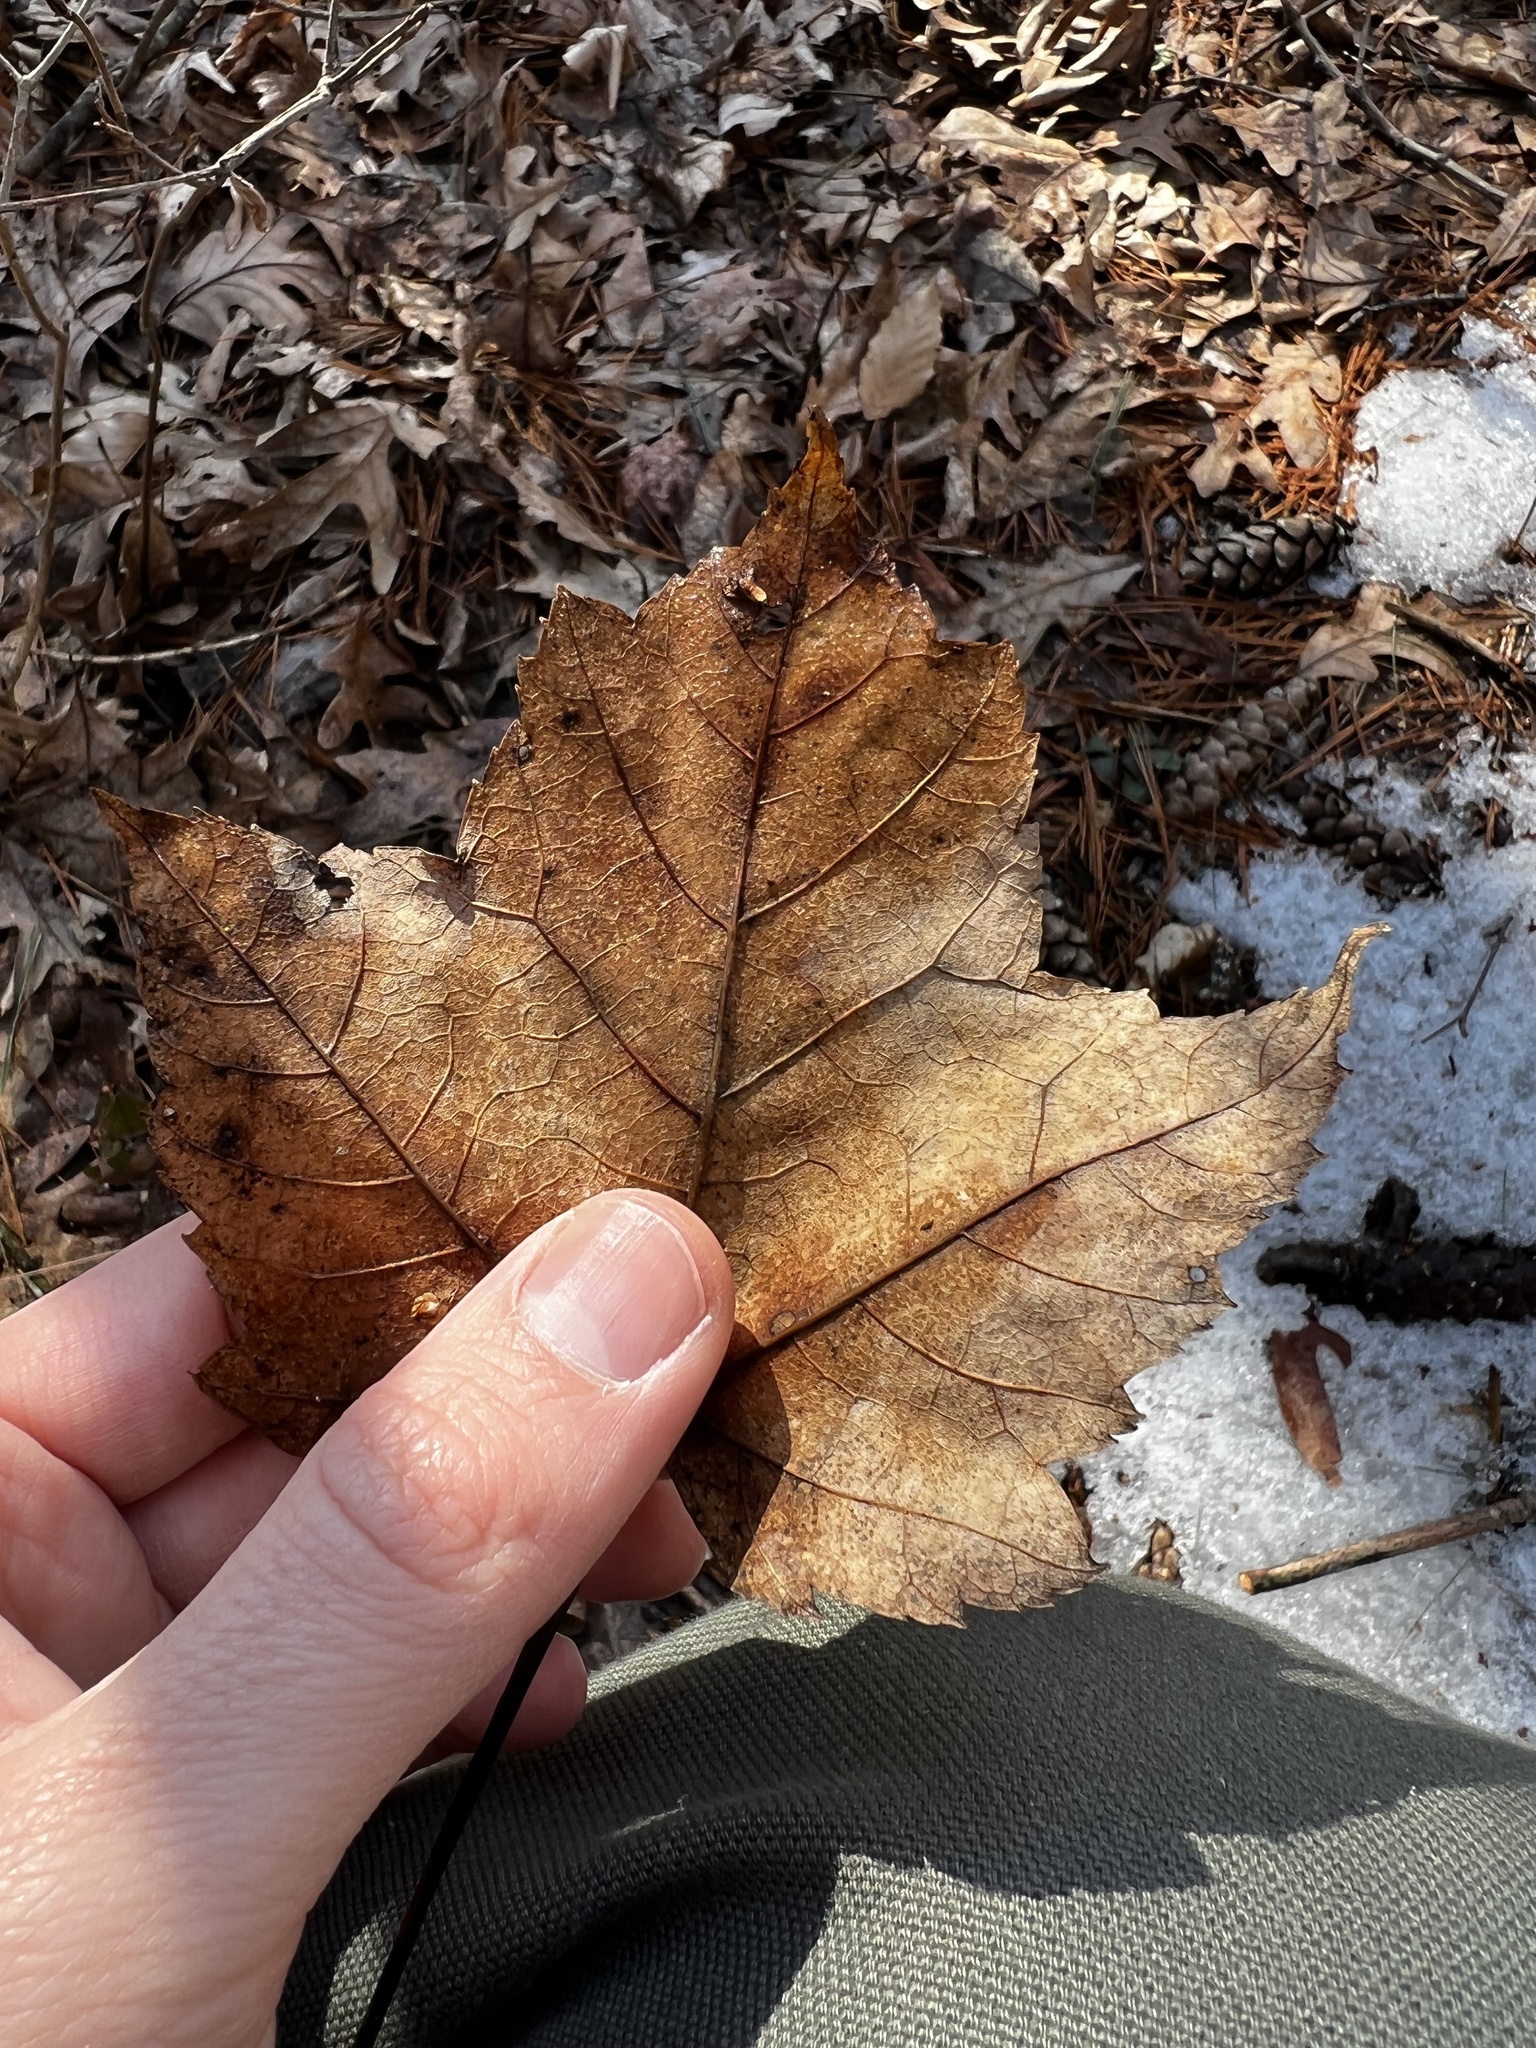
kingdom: Plantae
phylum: Tracheophyta
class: Magnoliopsida
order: Sapindales
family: Sapindaceae
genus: Acer
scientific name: Acer rubrum
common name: Red maple
